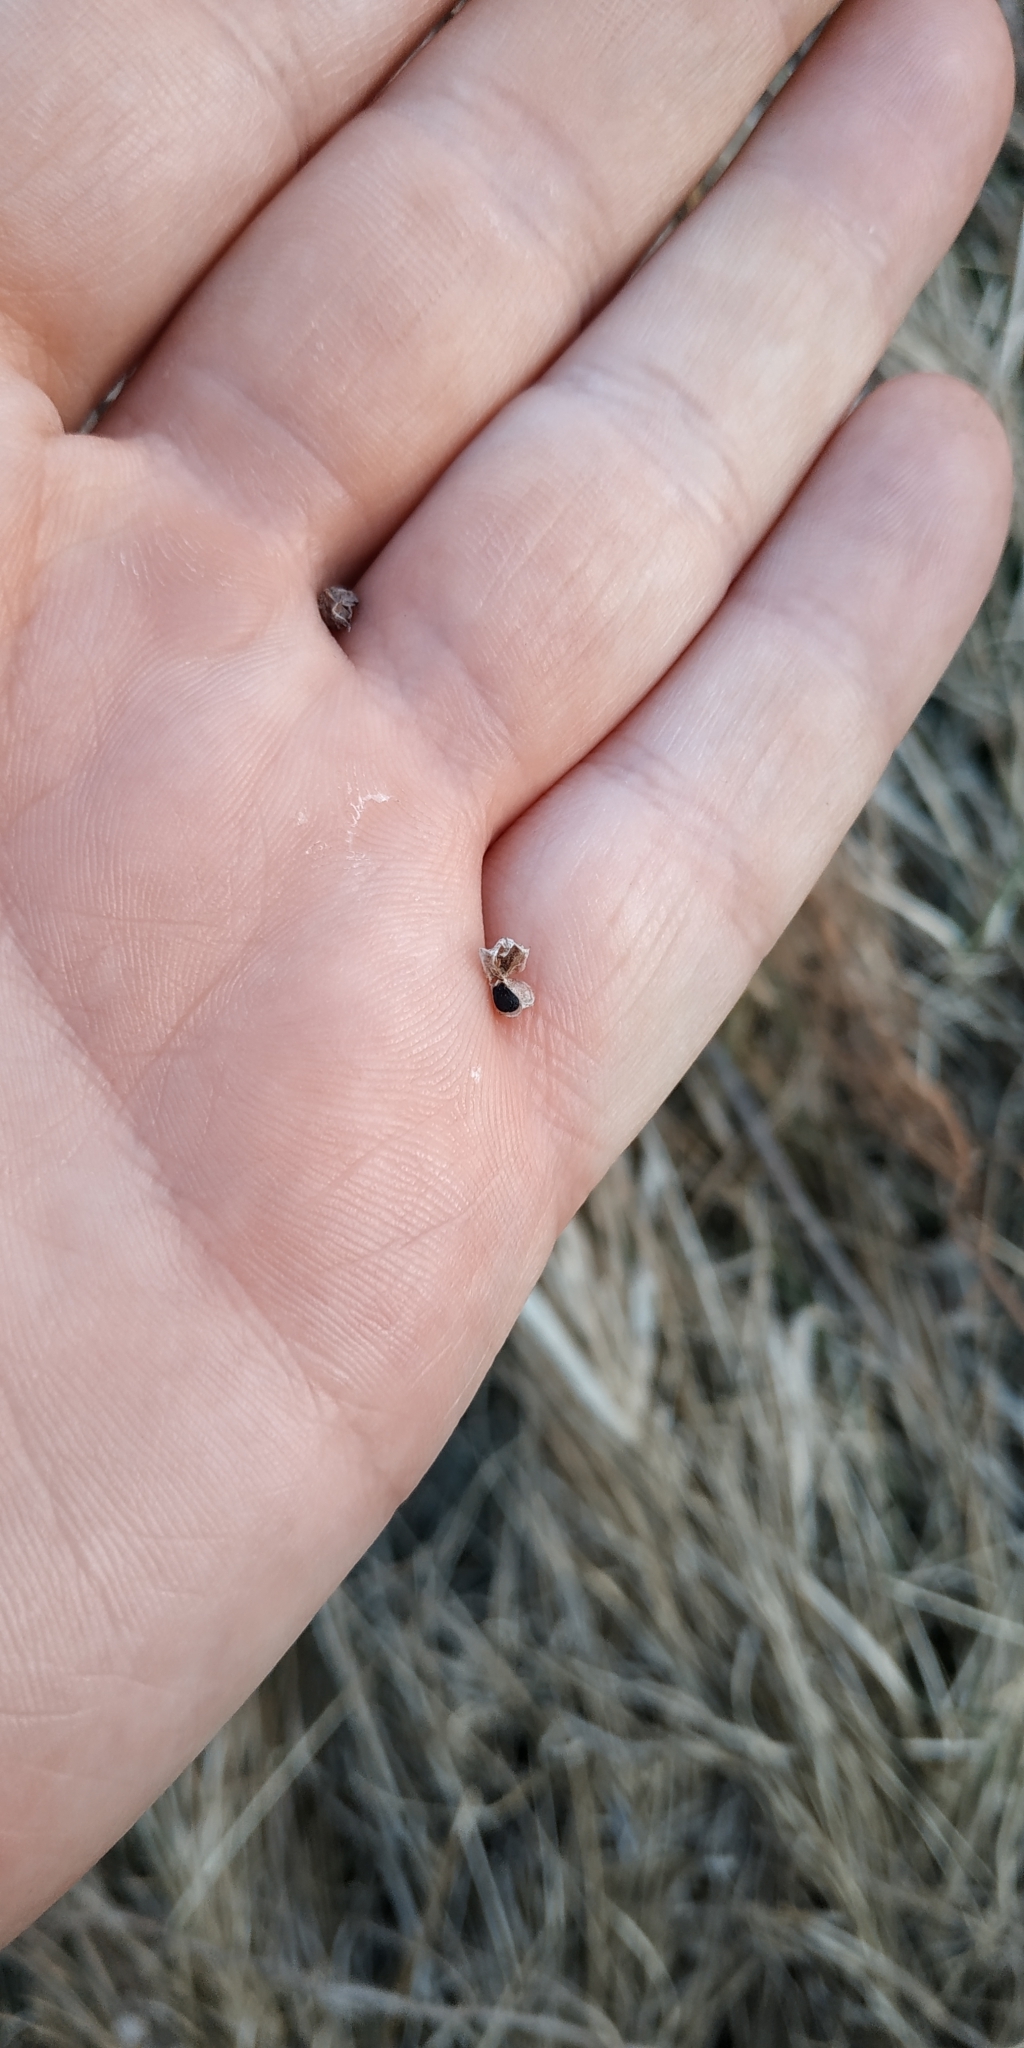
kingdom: Plantae
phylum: Tracheophyta
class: Liliopsida
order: Asparagales
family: Amaryllidaceae
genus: Allium
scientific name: Allium angulosum
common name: Mouse garlic
